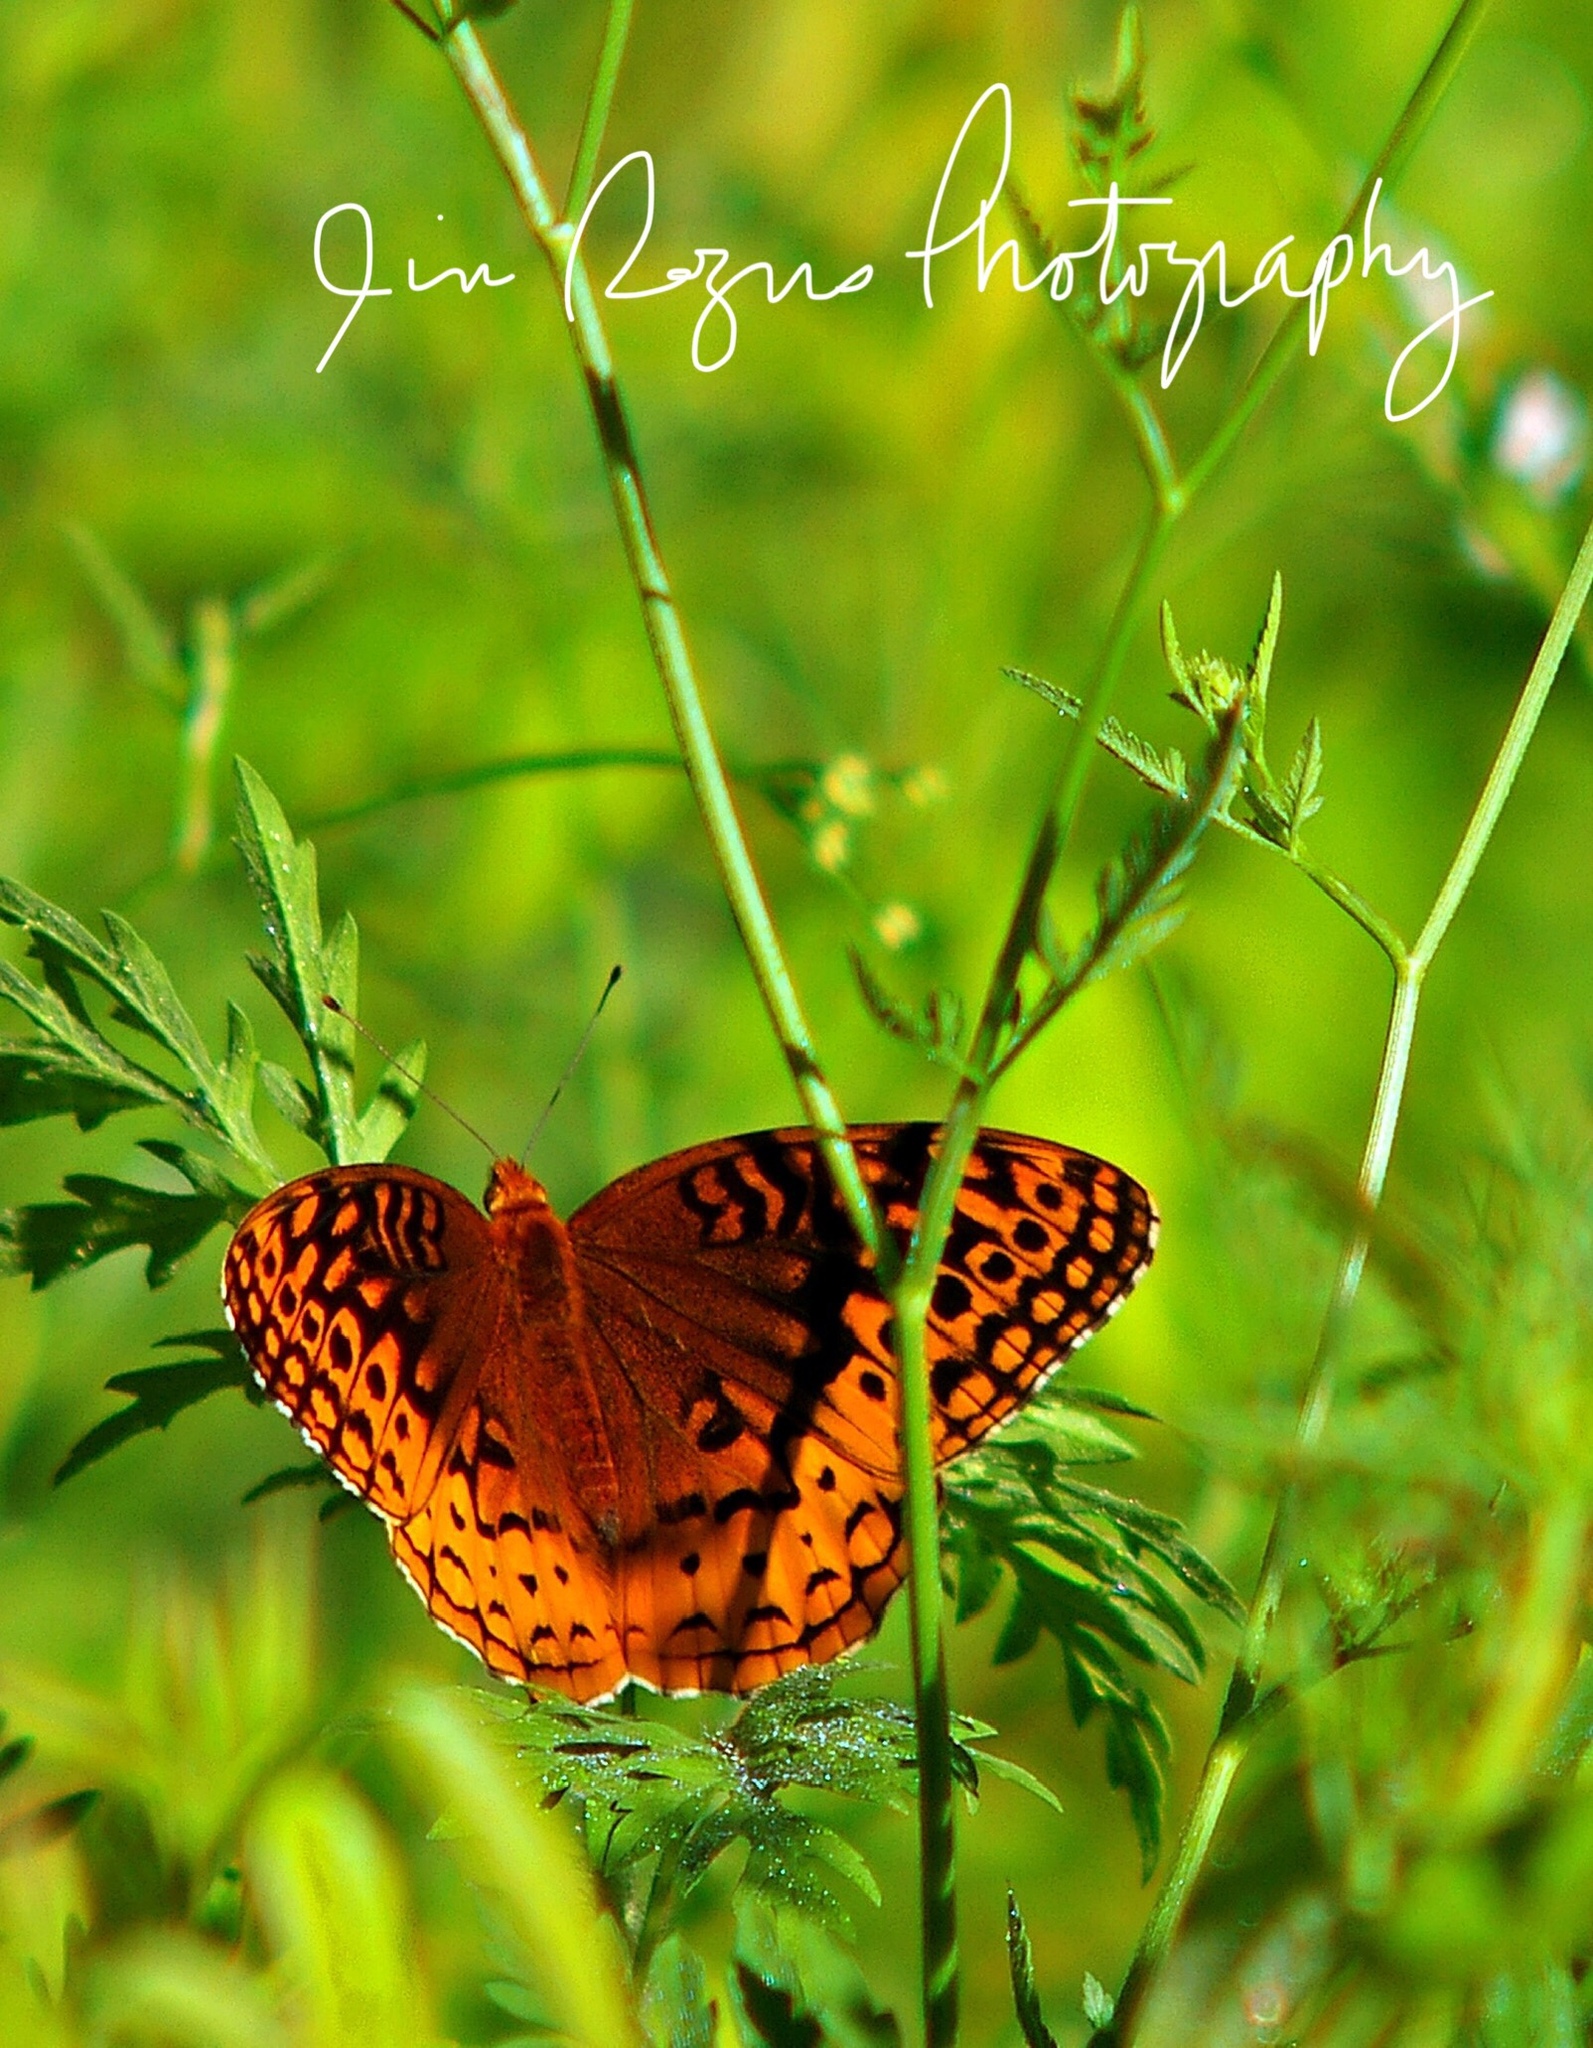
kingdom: Animalia
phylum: Arthropoda
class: Insecta
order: Lepidoptera
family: Nymphalidae
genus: Speyeria
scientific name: Speyeria cybele
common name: Great spangled fritillary
